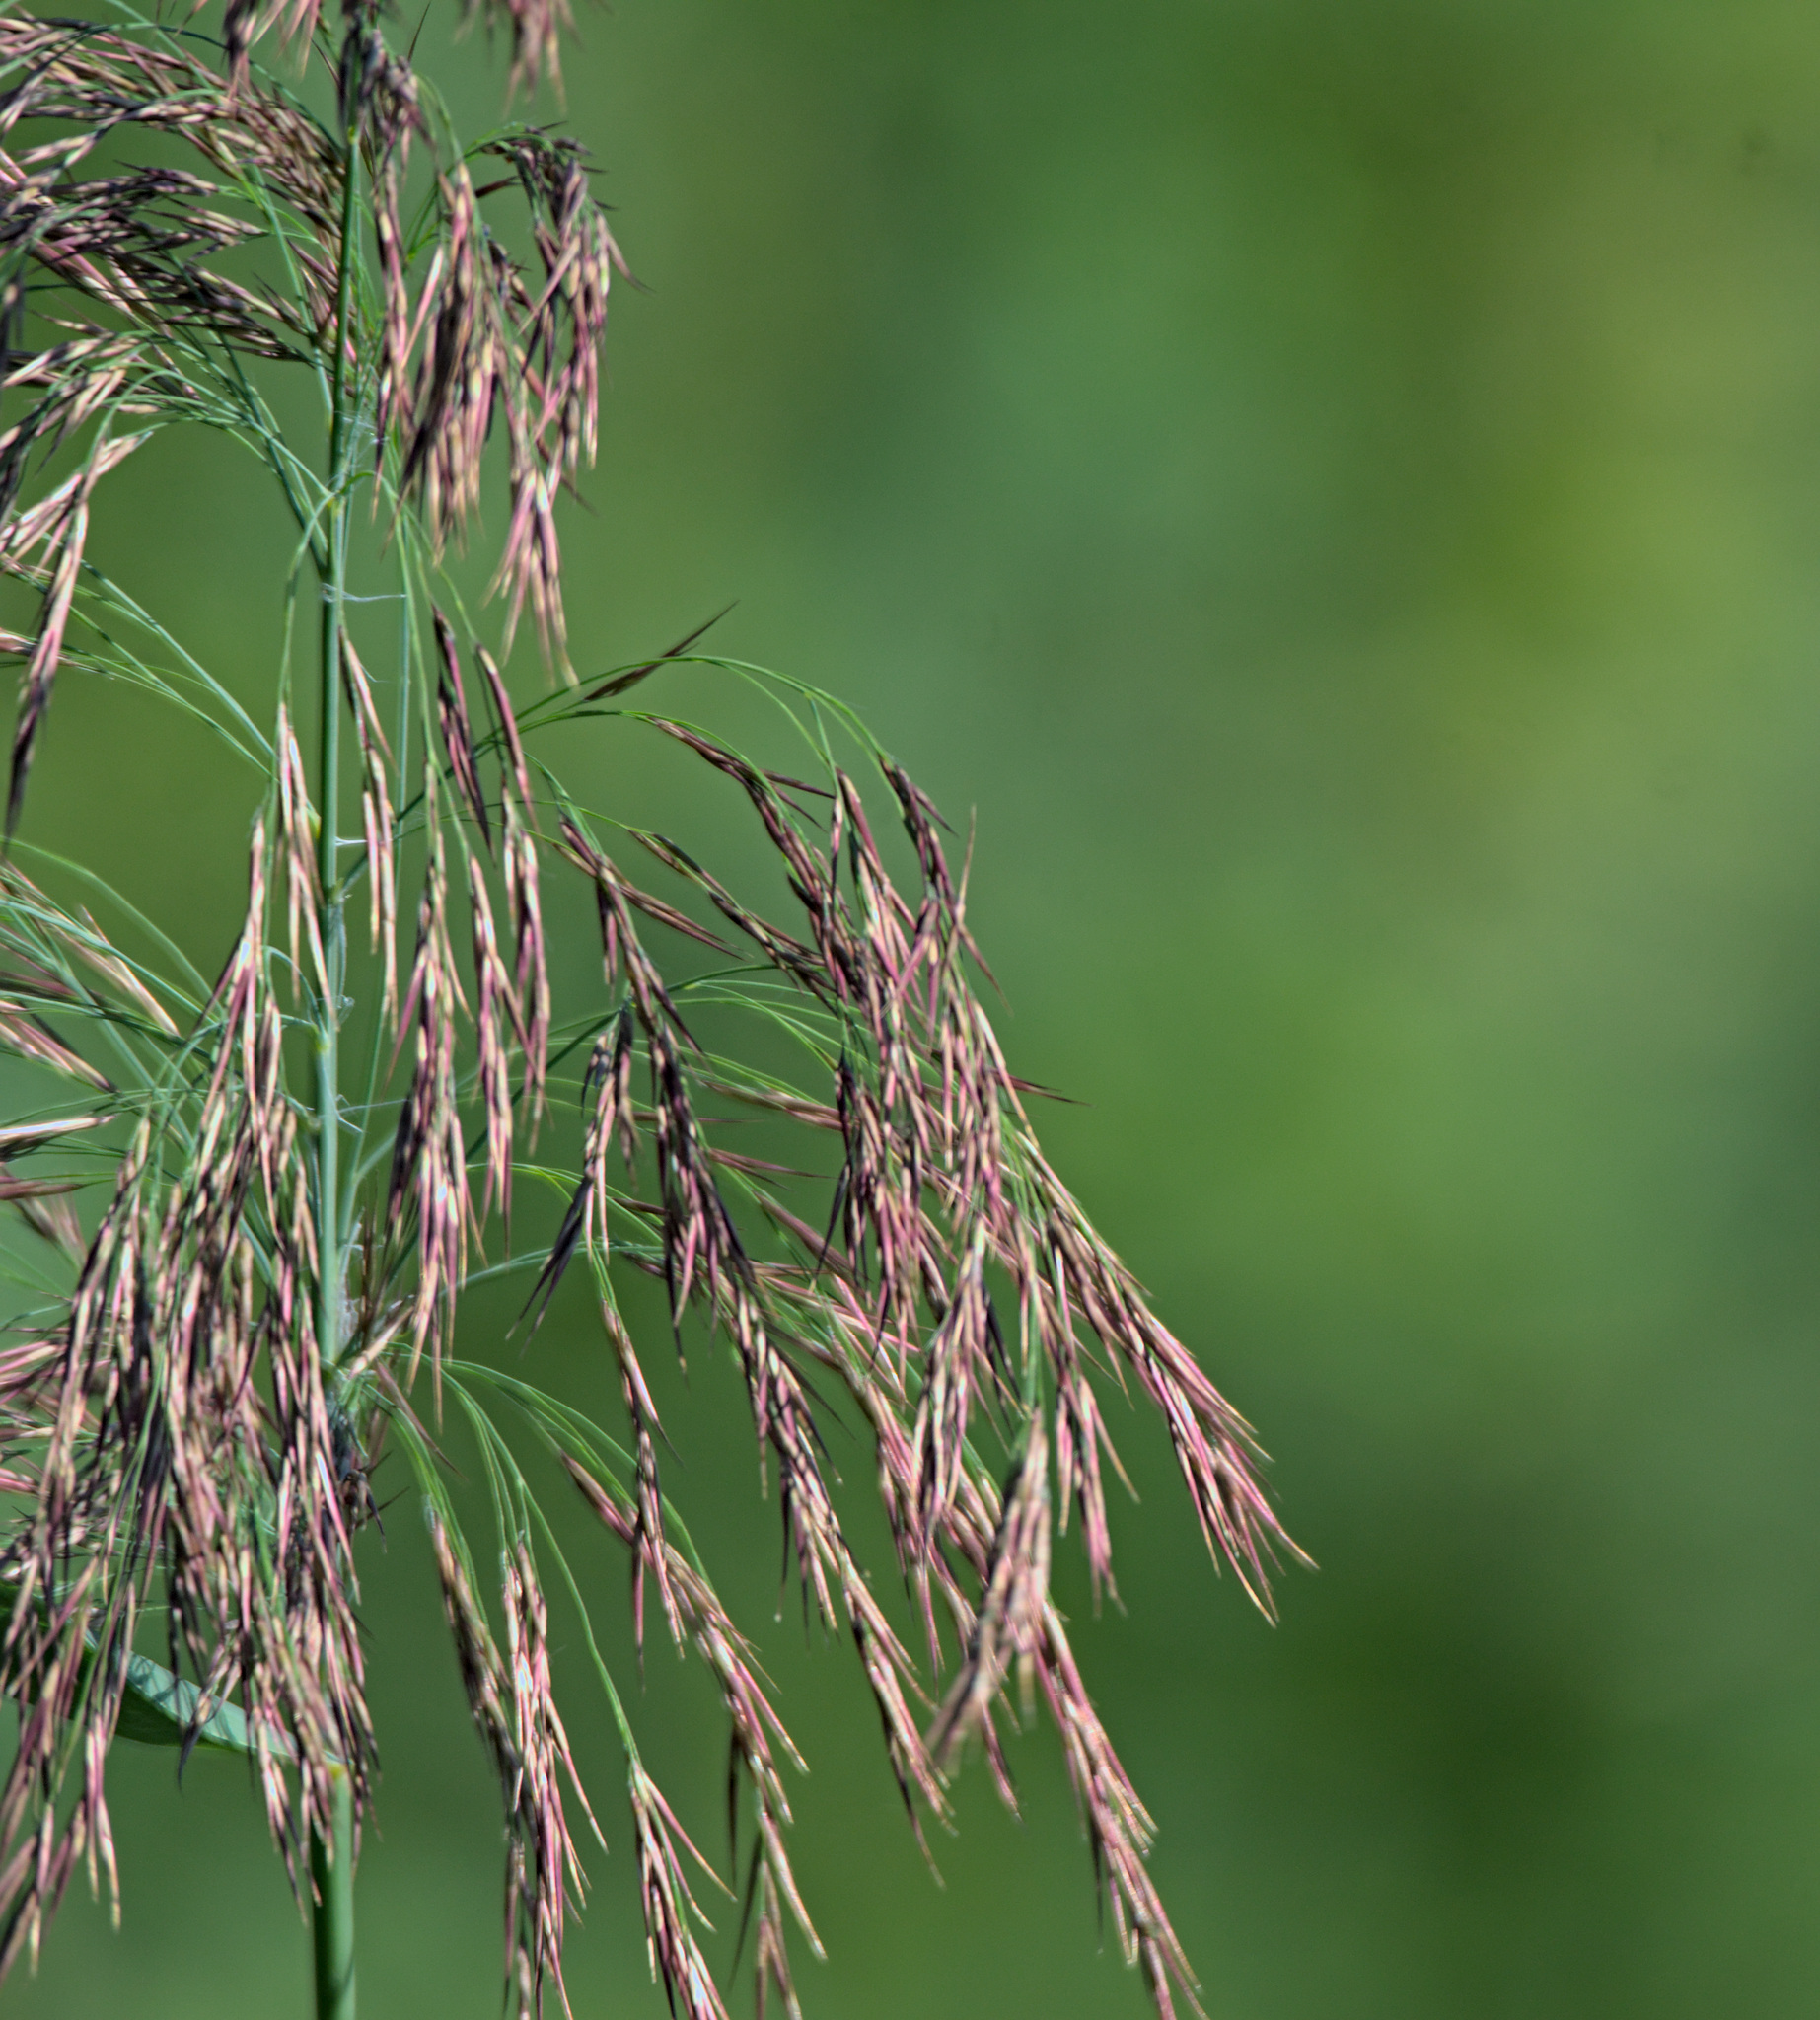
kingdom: Plantae
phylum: Tracheophyta
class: Liliopsida
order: Poales
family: Poaceae
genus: Phragmites
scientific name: Phragmites australis
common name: Common reed
